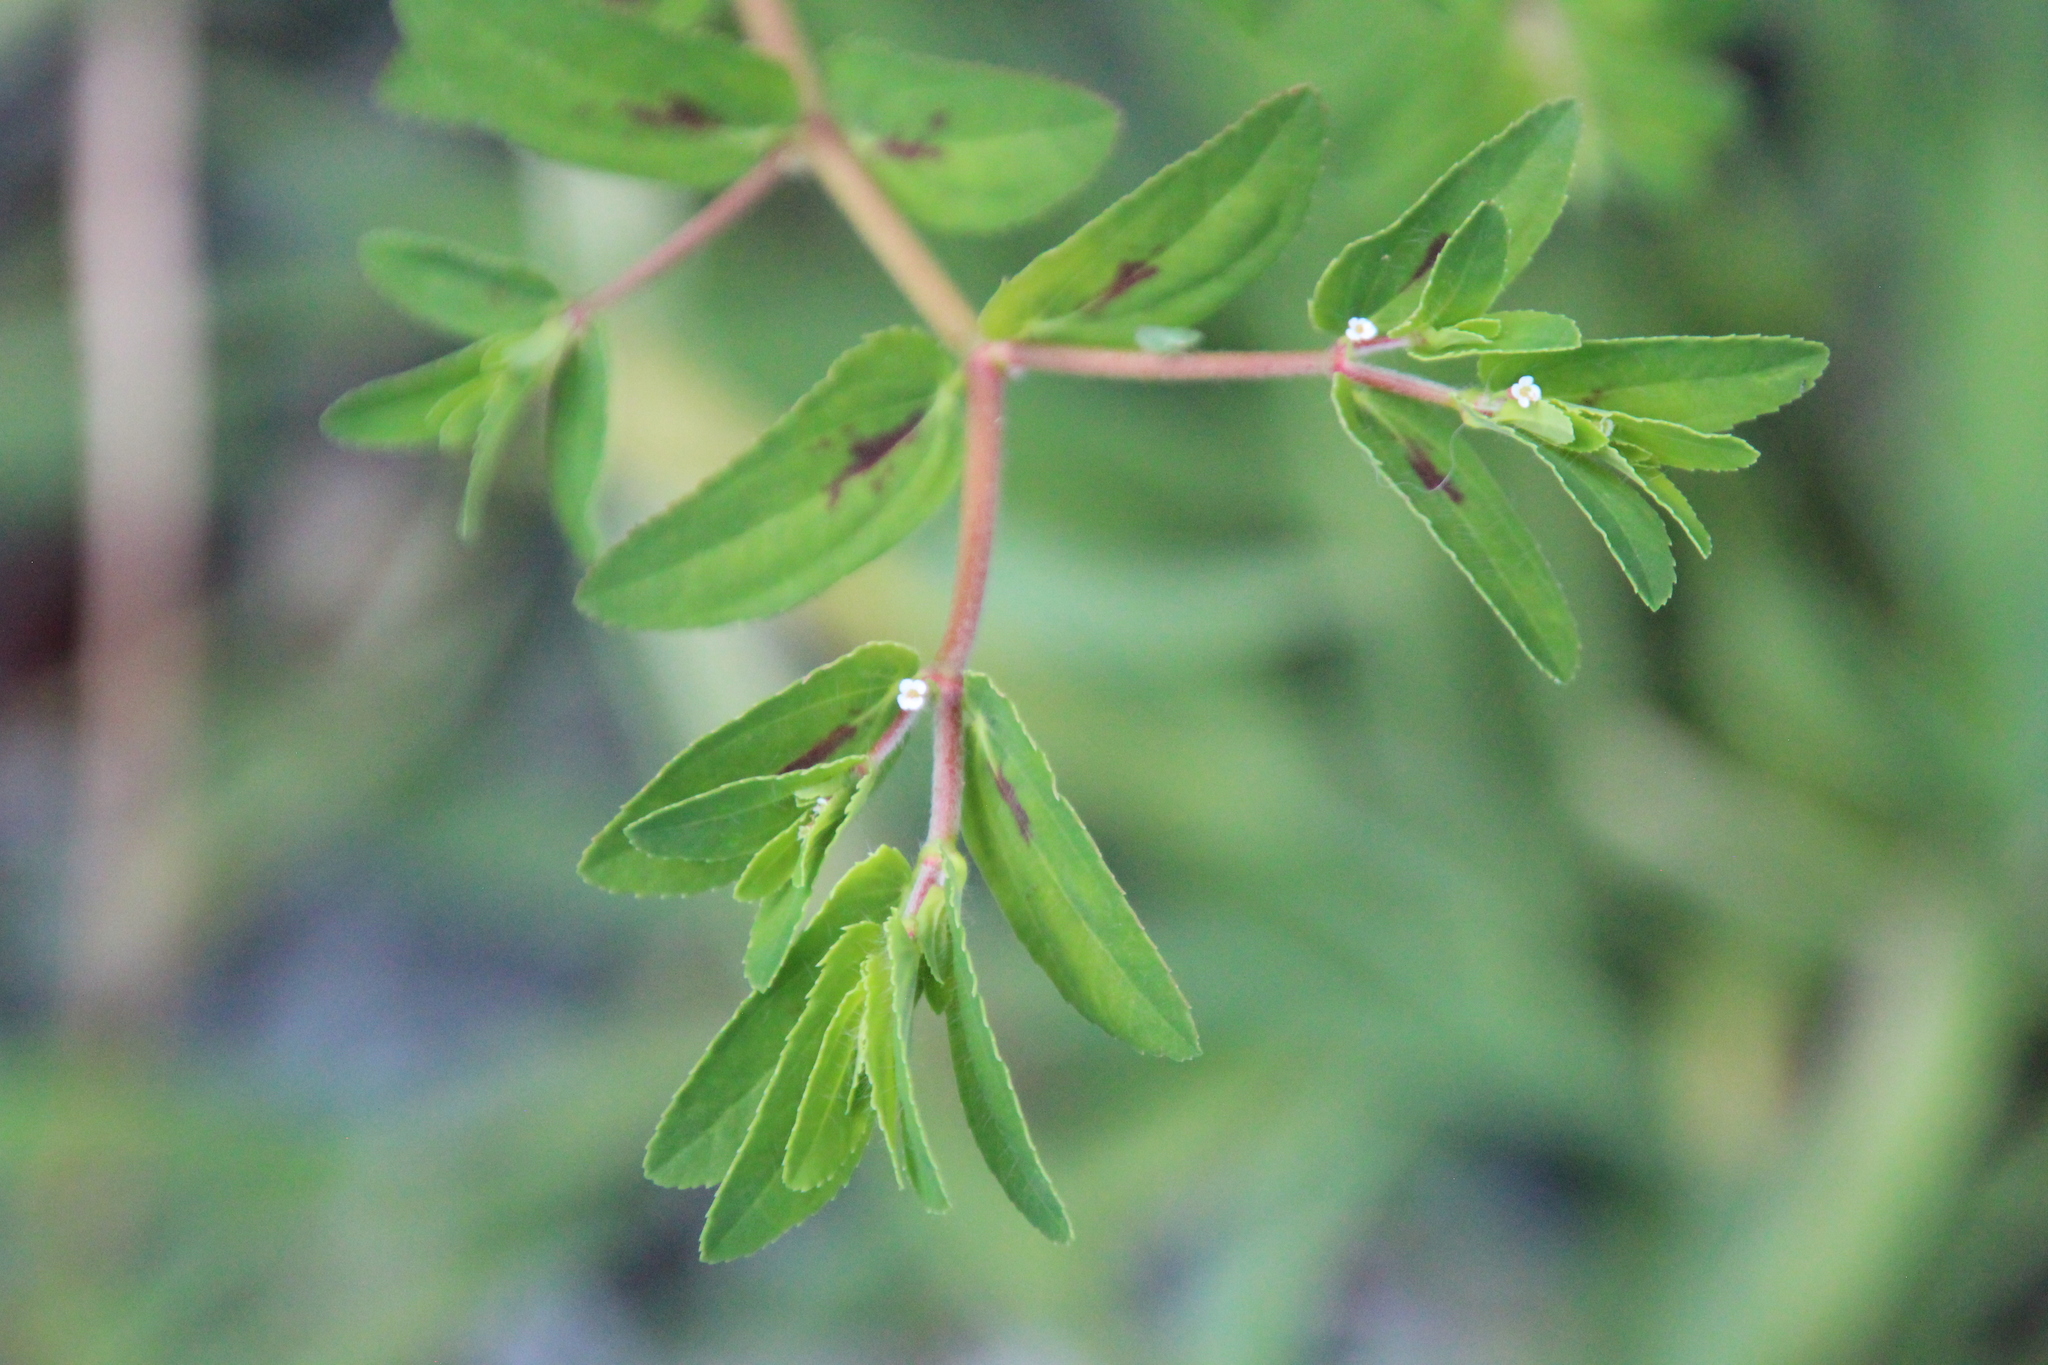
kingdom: Plantae
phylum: Tracheophyta
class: Magnoliopsida
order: Malpighiales
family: Euphorbiaceae
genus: Euphorbia
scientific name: Euphorbia nutans
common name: Eyebane
